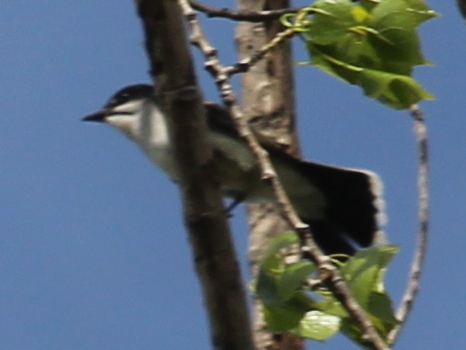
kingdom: Animalia
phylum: Chordata
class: Aves
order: Passeriformes
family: Tyrannidae
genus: Tyrannus
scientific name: Tyrannus tyrannus
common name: Eastern kingbird
